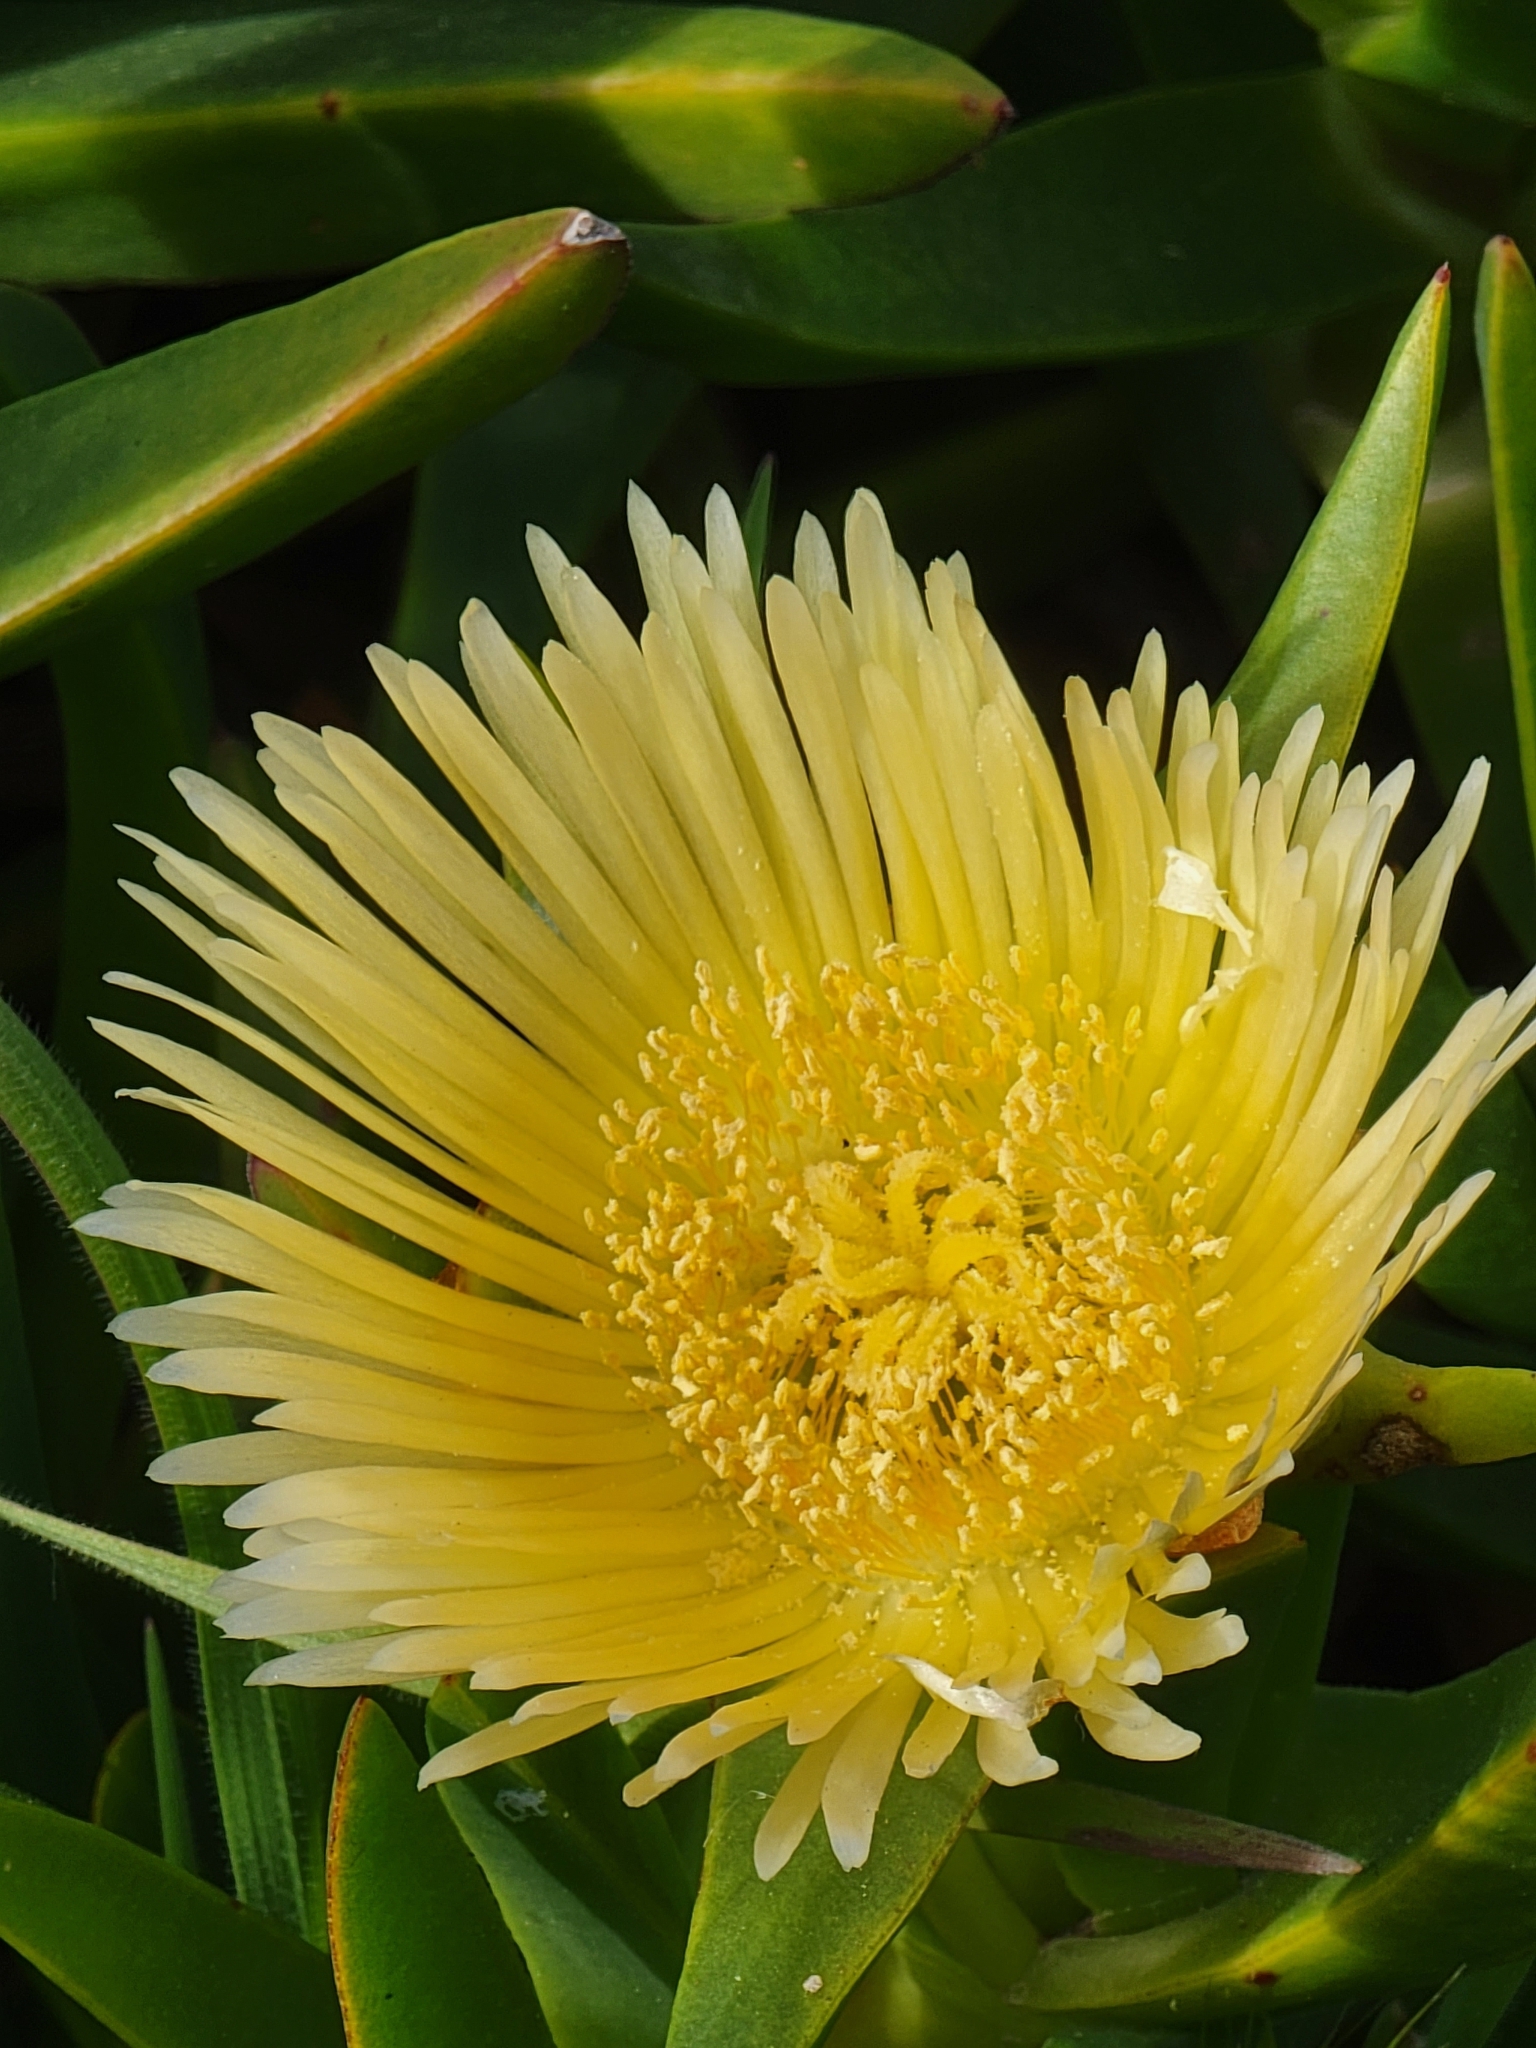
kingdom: Plantae
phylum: Tracheophyta
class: Magnoliopsida
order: Caryophyllales
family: Aizoaceae
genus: Carpobrotus
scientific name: Carpobrotus edulis
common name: Hottentot-fig
